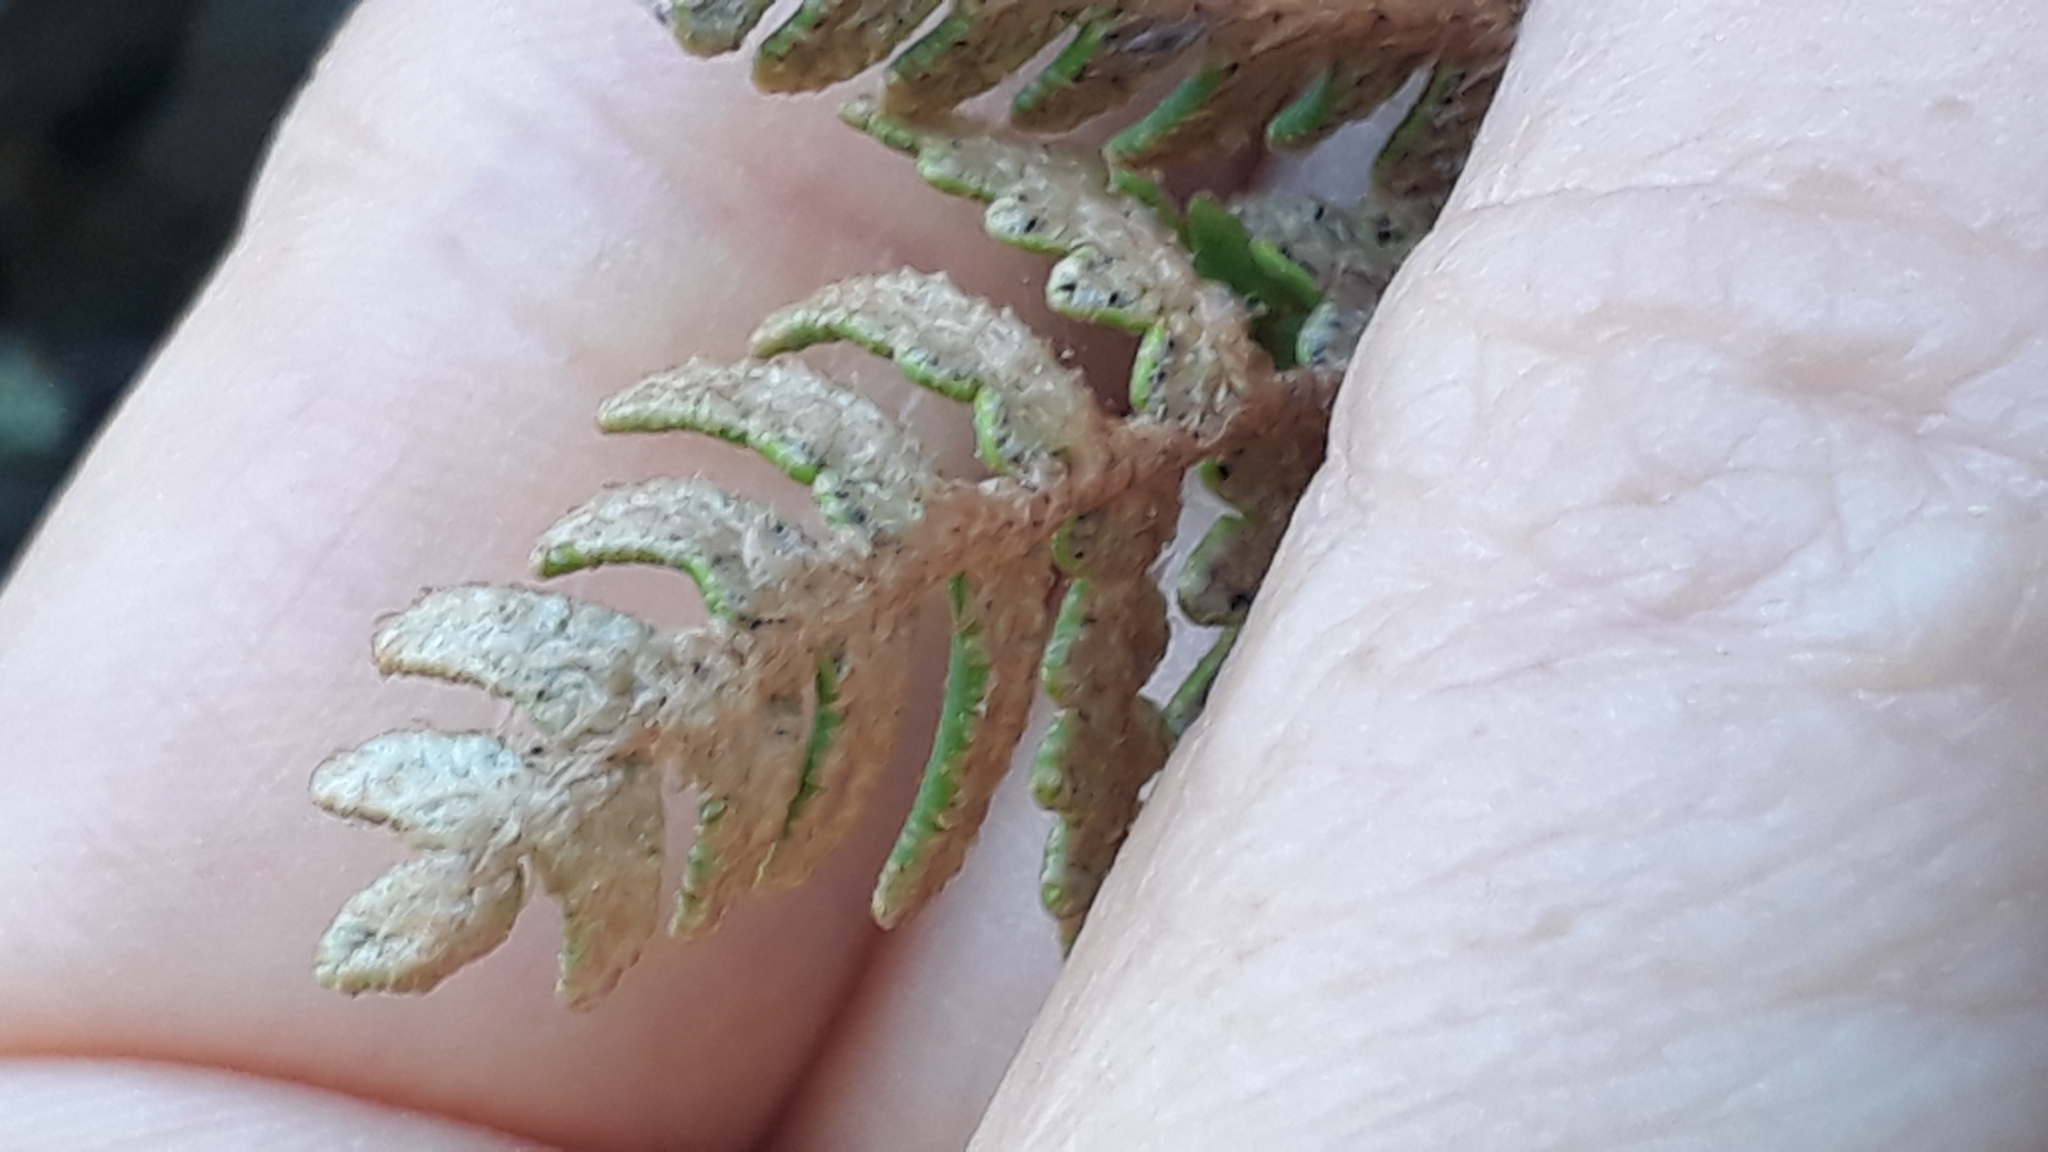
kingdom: Plantae
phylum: Tracheophyta
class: Polypodiopsida
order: Polypodiales
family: Pteridaceae
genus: Paragymnopteris
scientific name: Paragymnopteris marantae
